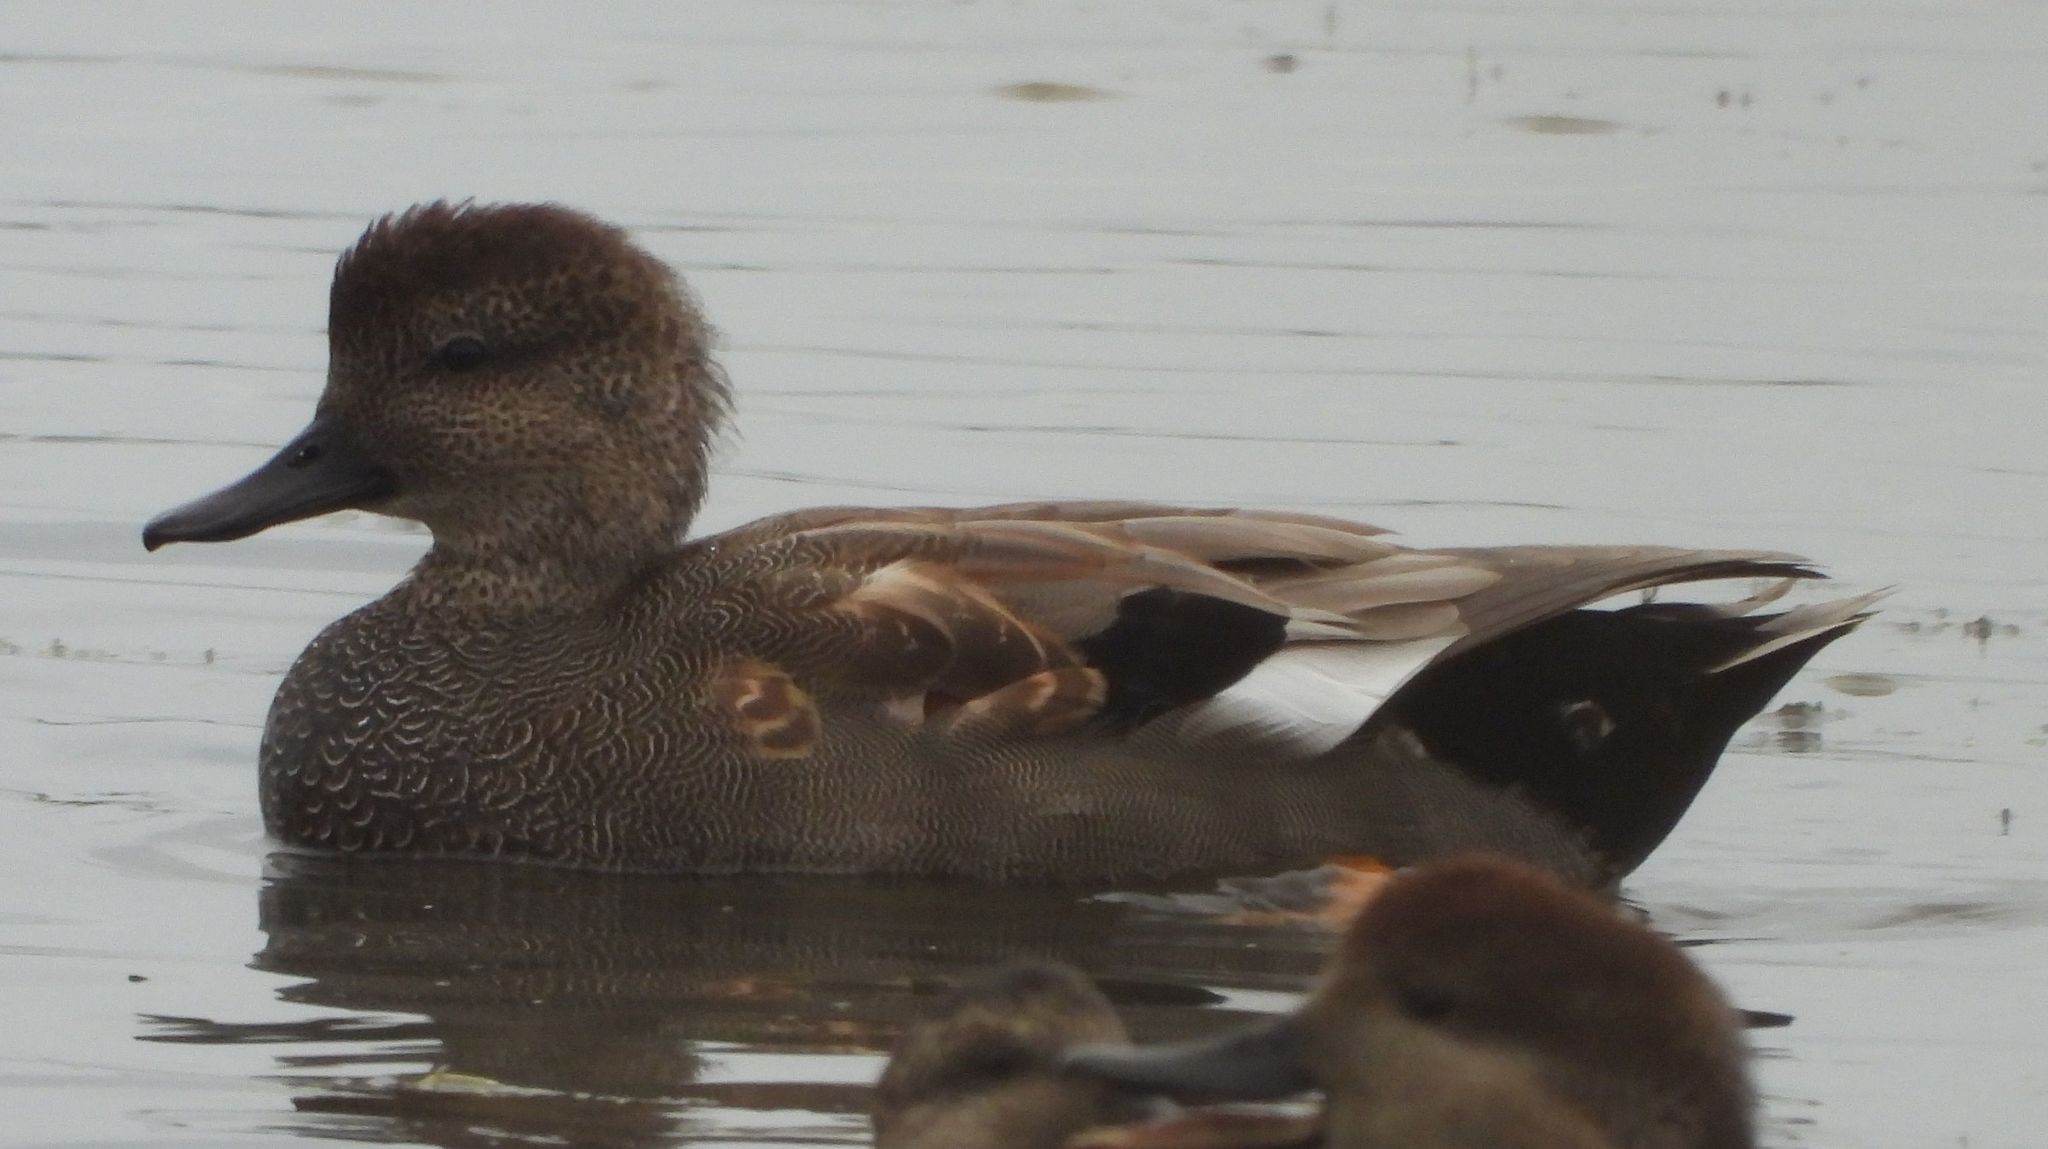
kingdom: Animalia
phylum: Chordata
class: Aves
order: Anseriformes
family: Anatidae
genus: Mareca
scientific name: Mareca strepera
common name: Gadwall
